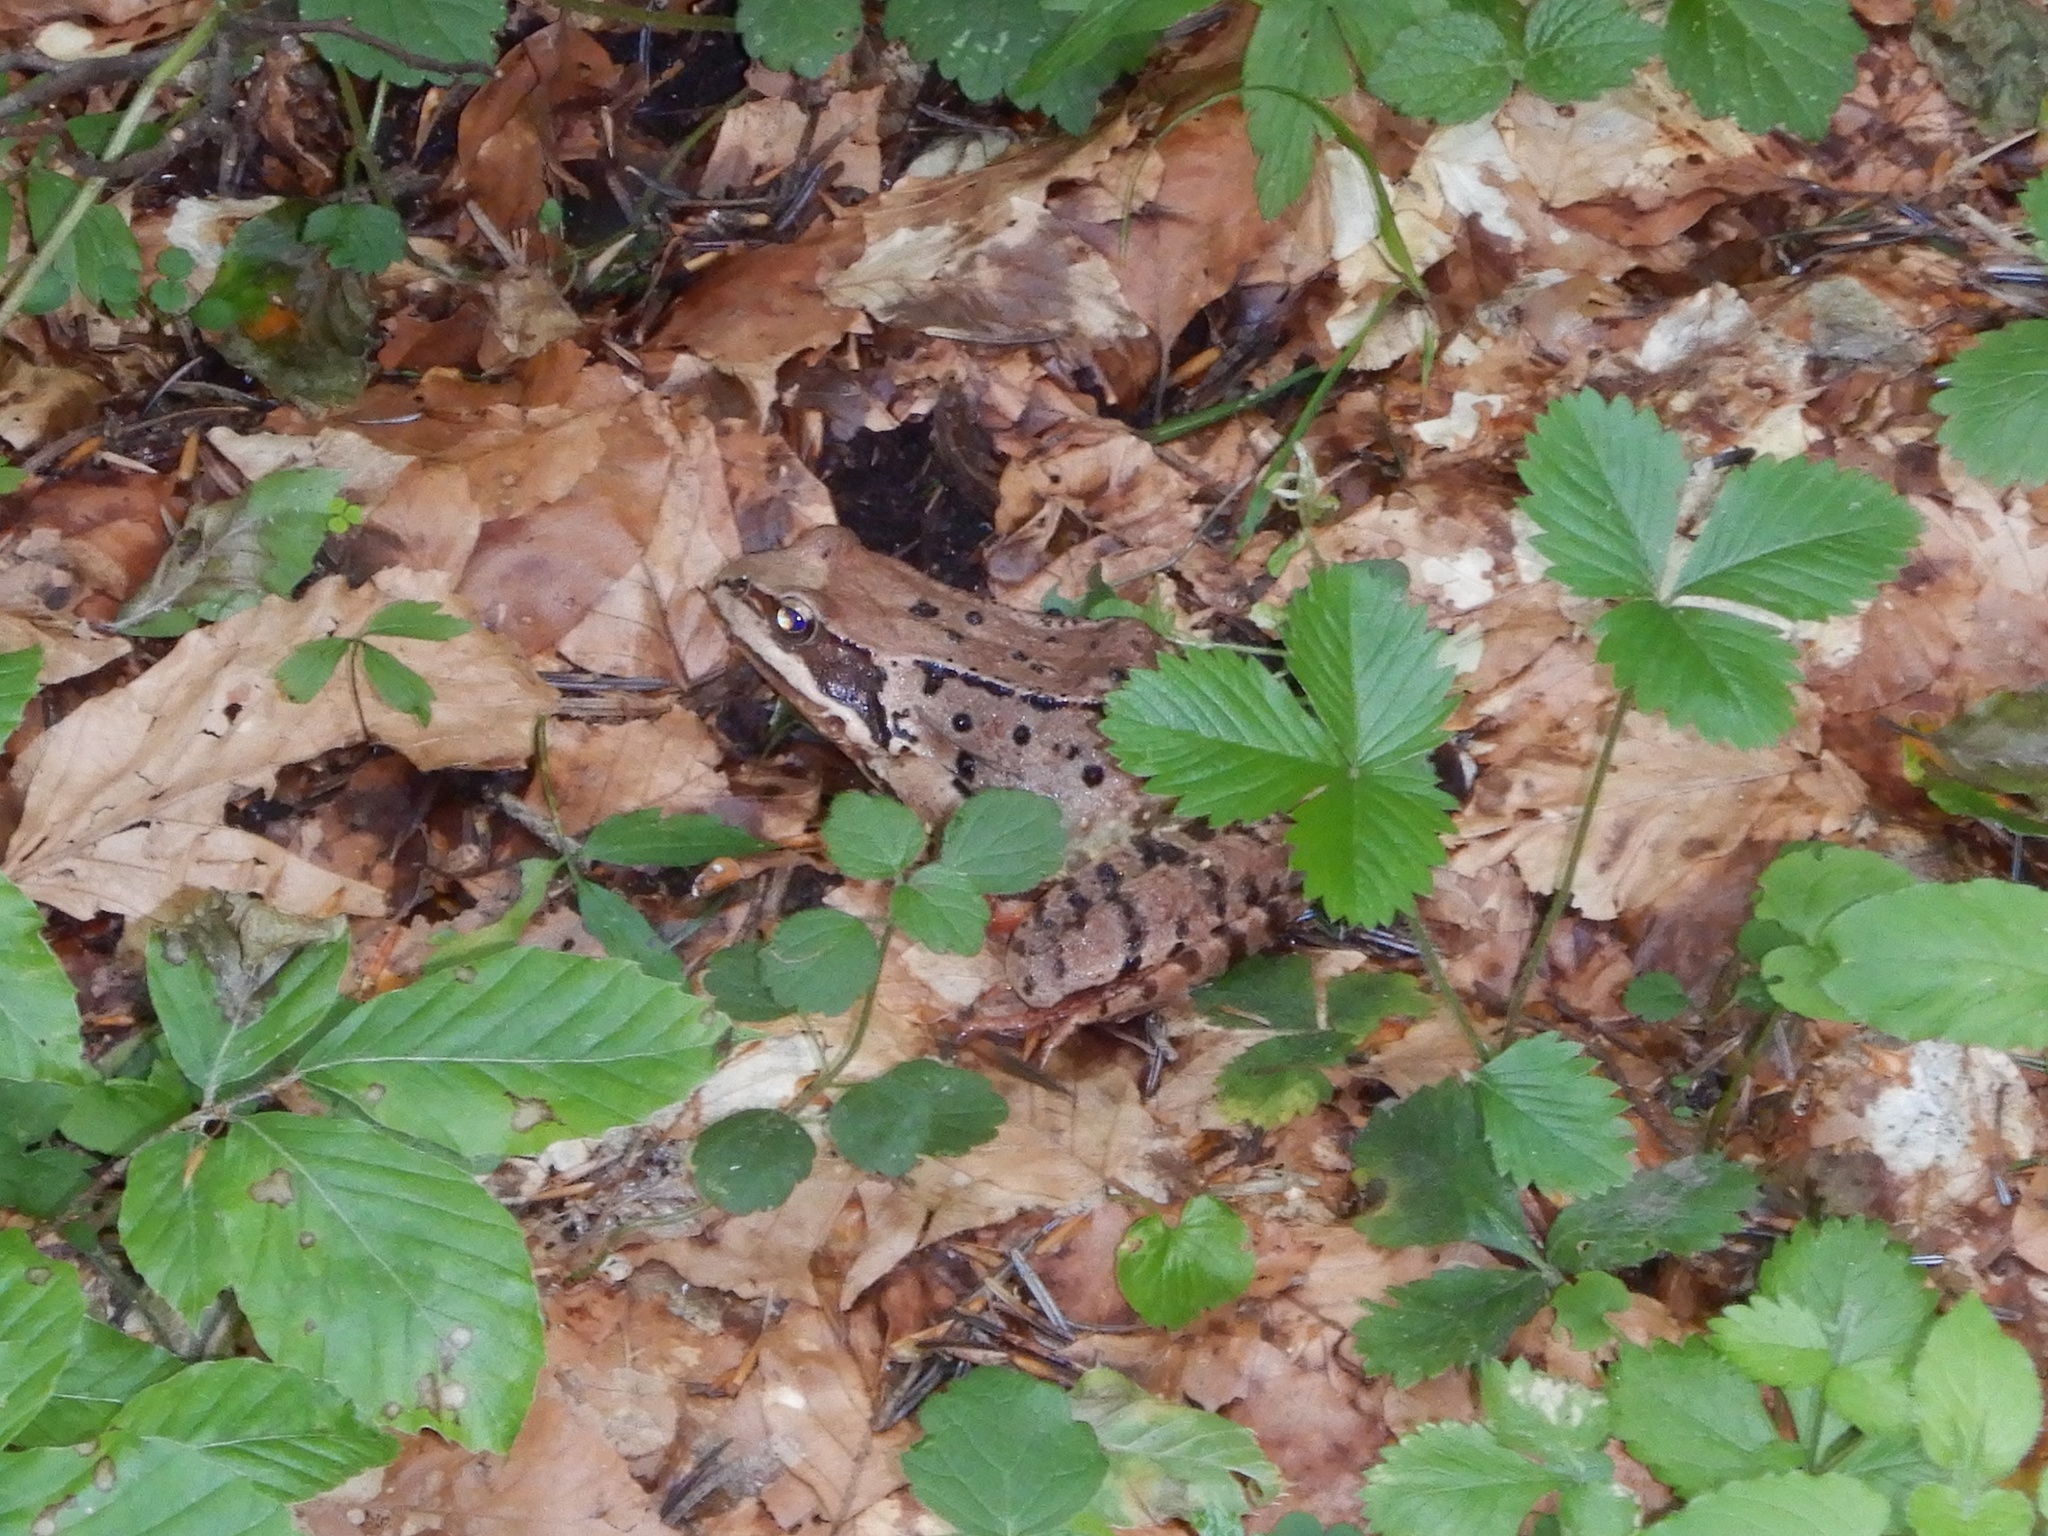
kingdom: Animalia
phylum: Chordata
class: Amphibia
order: Anura
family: Ranidae
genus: Rana
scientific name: Rana temporaria
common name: Common frog
